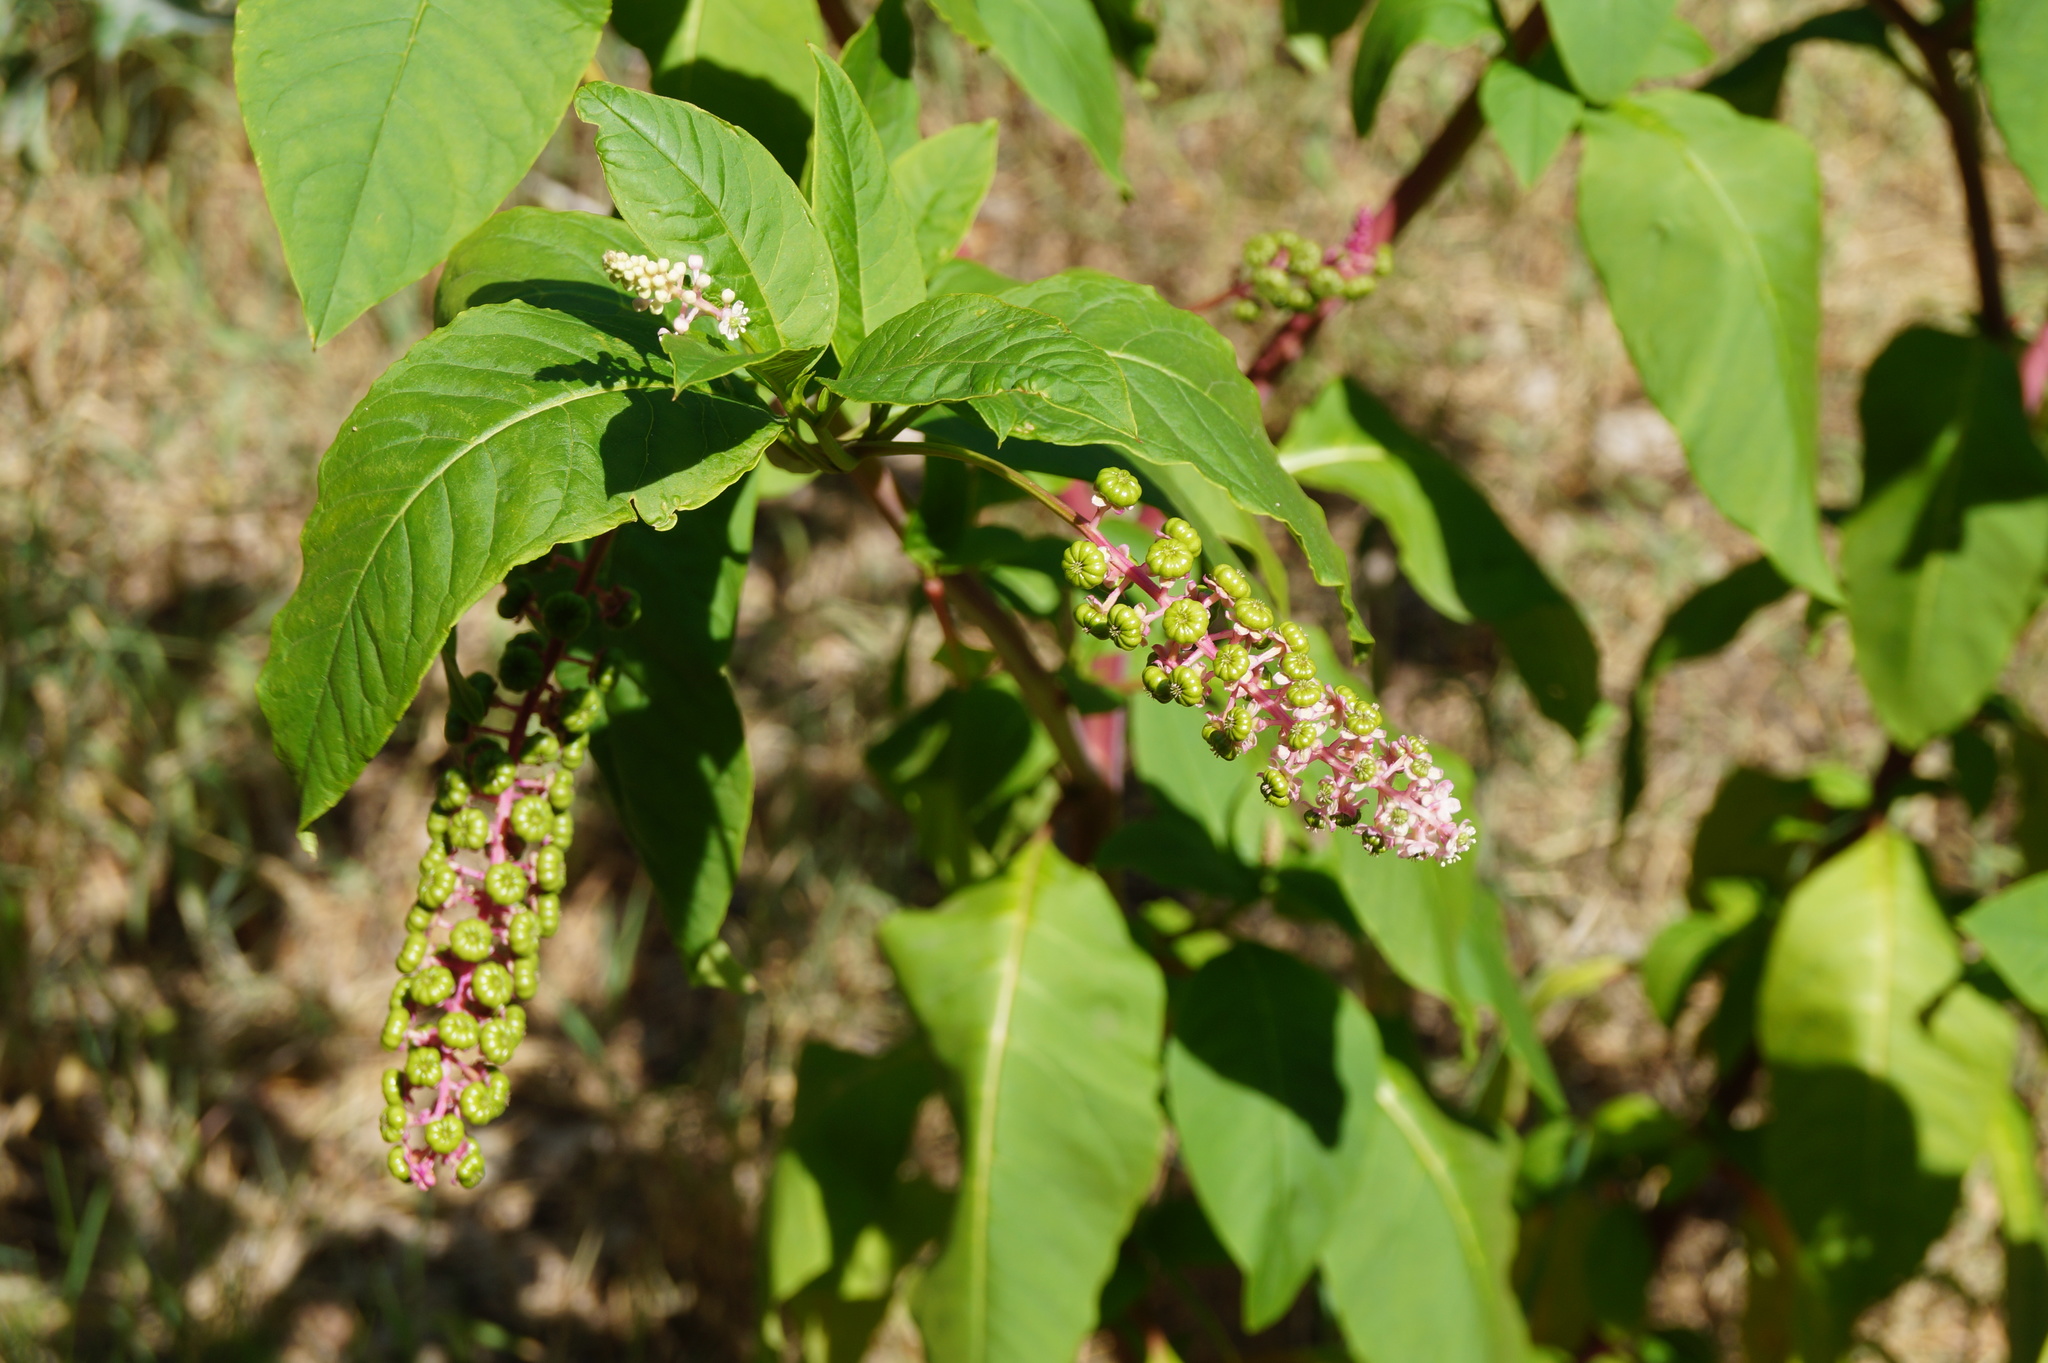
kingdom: Plantae
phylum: Tracheophyta
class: Magnoliopsida
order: Caryophyllales
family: Phytolaccaceae
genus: Phytolacca
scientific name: Phytolacca americana
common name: American pokeweed
